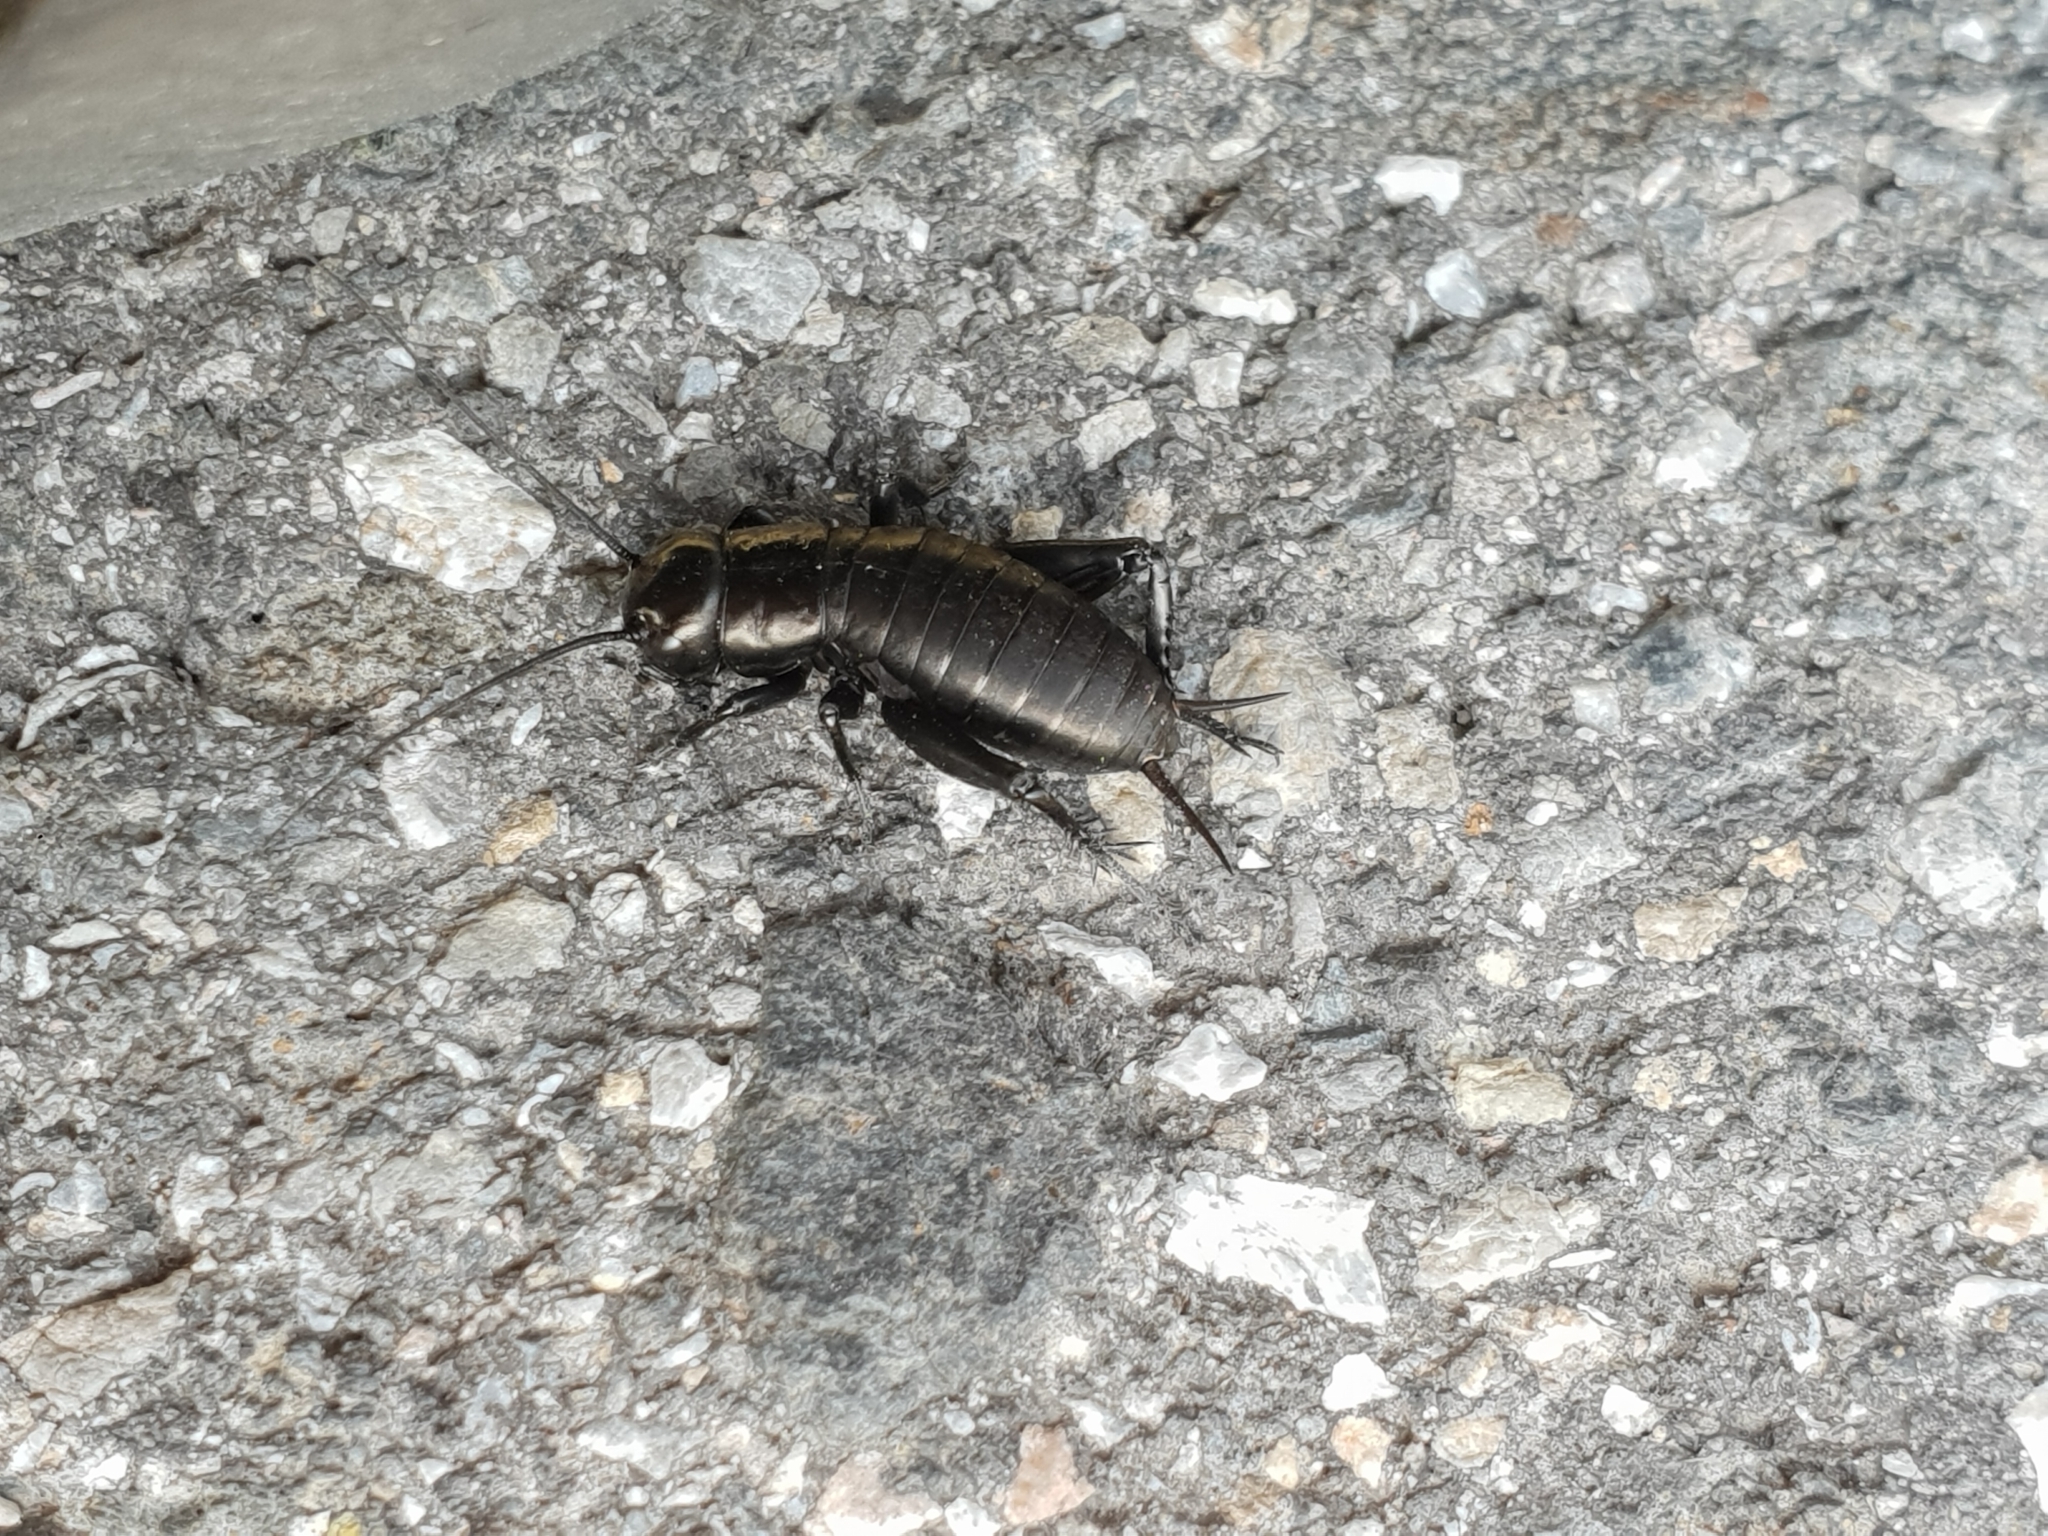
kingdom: Animalia
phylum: Arthropoda
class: Insecta
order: Orthoptera
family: Gryllidae
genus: Gryllus
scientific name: Gryllus campestris
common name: Field cricket
